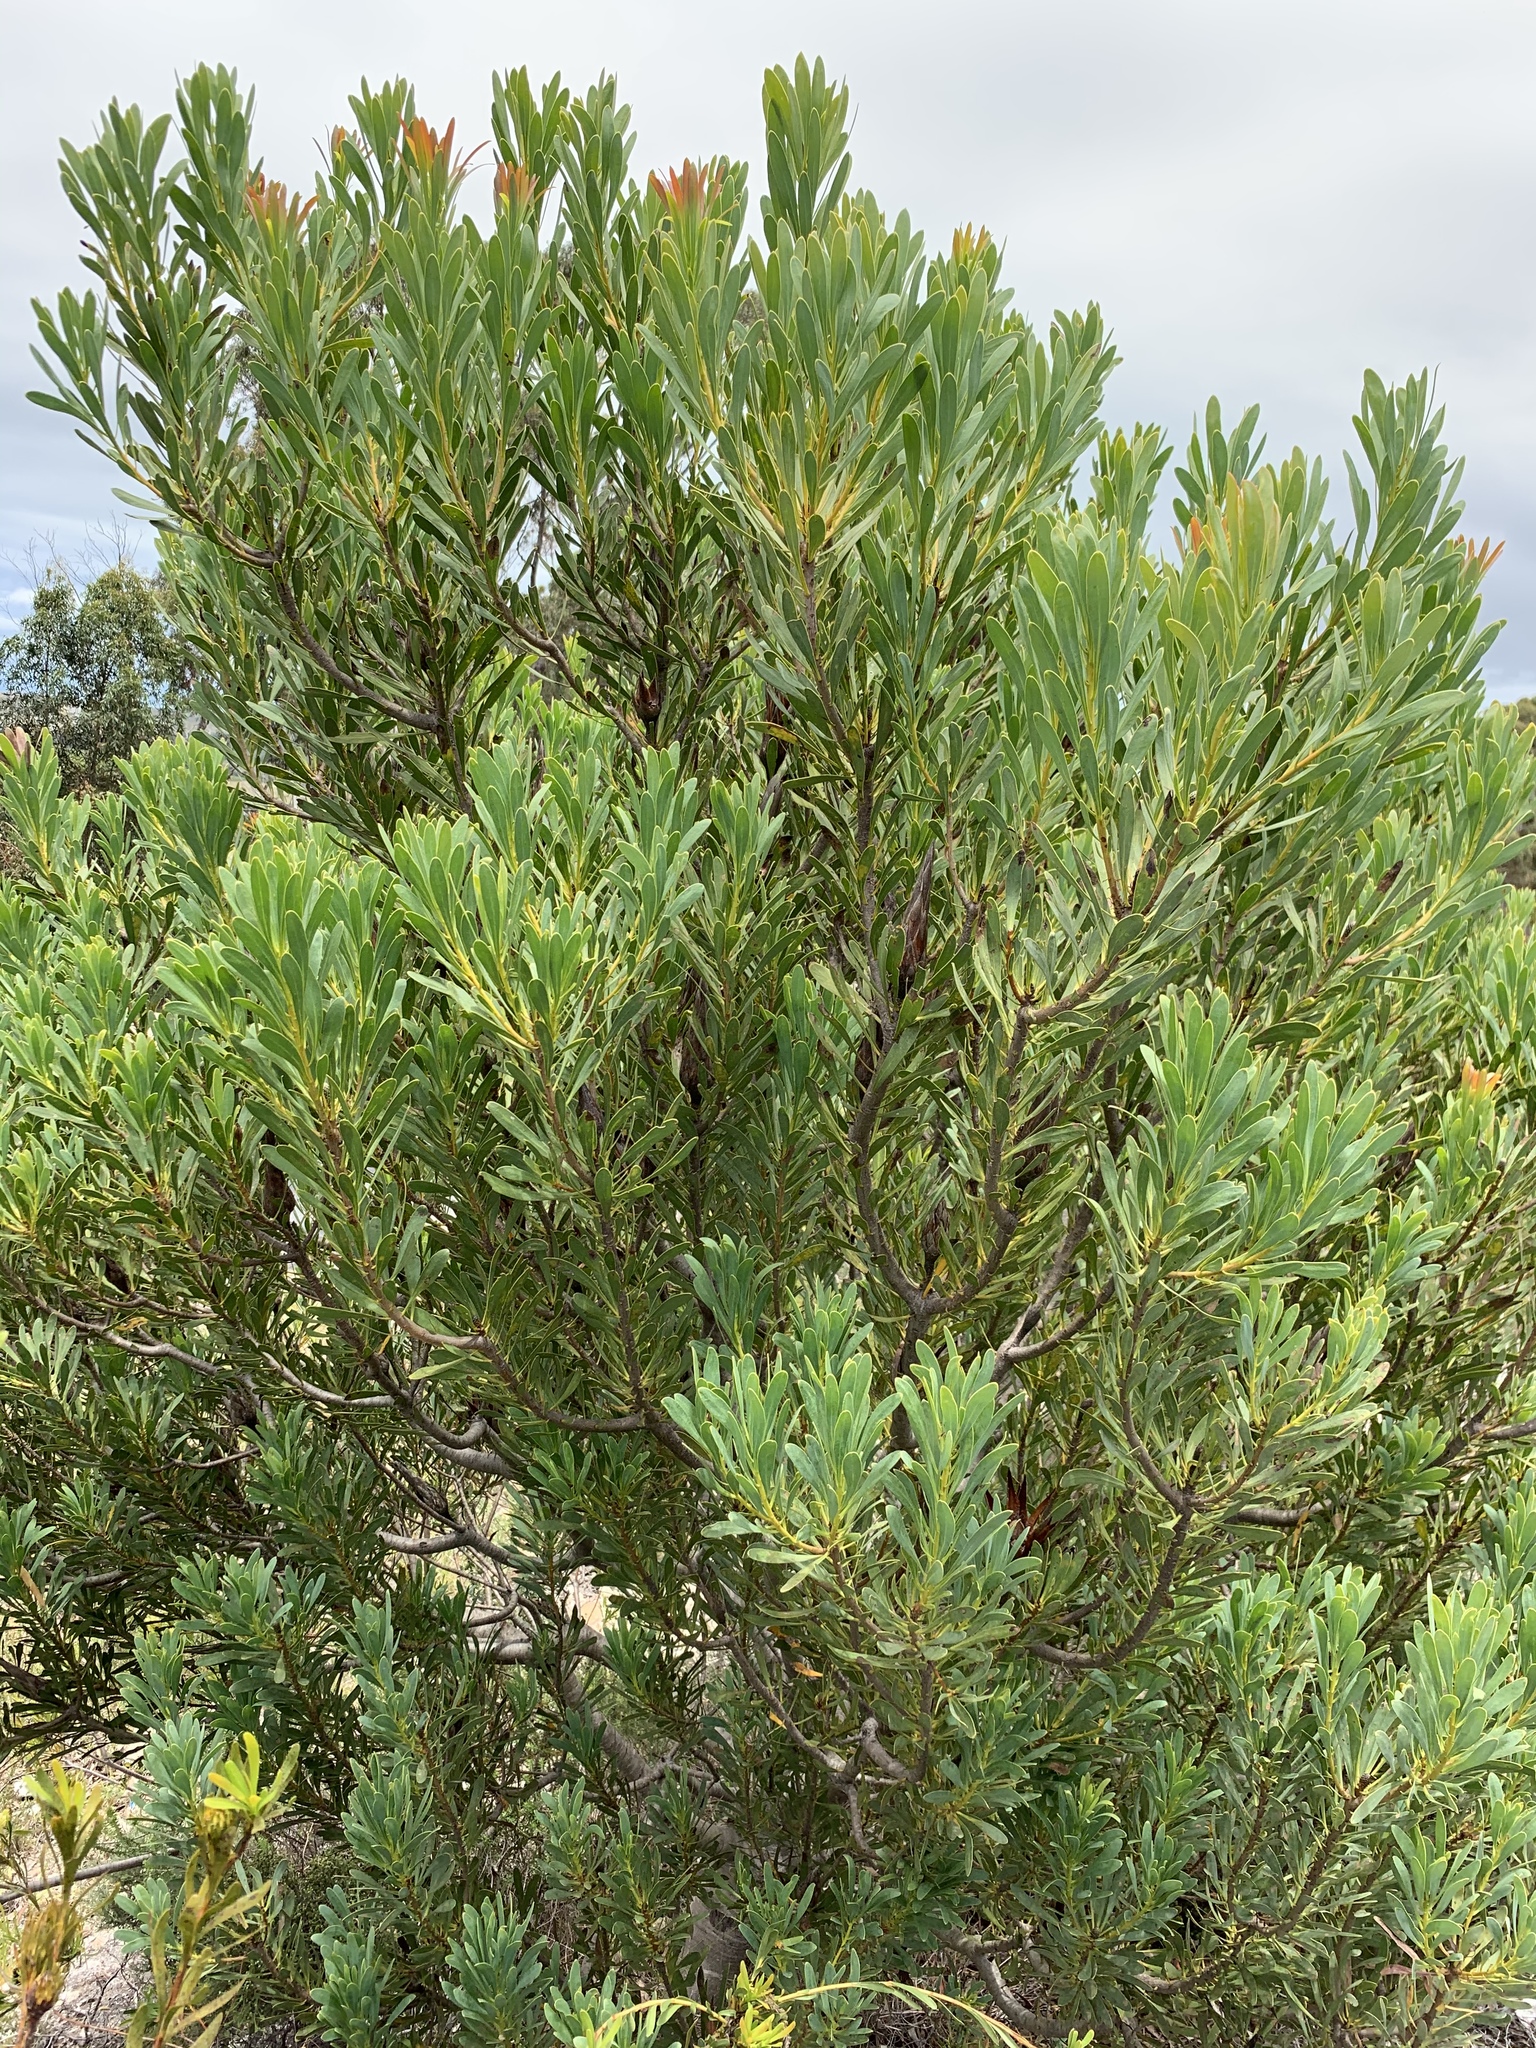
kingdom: Plantae
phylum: Tracheophyta
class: Magnoliopsida
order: Proteales
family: Proteaceae
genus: Protea
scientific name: Protea repens
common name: Sugarbush
